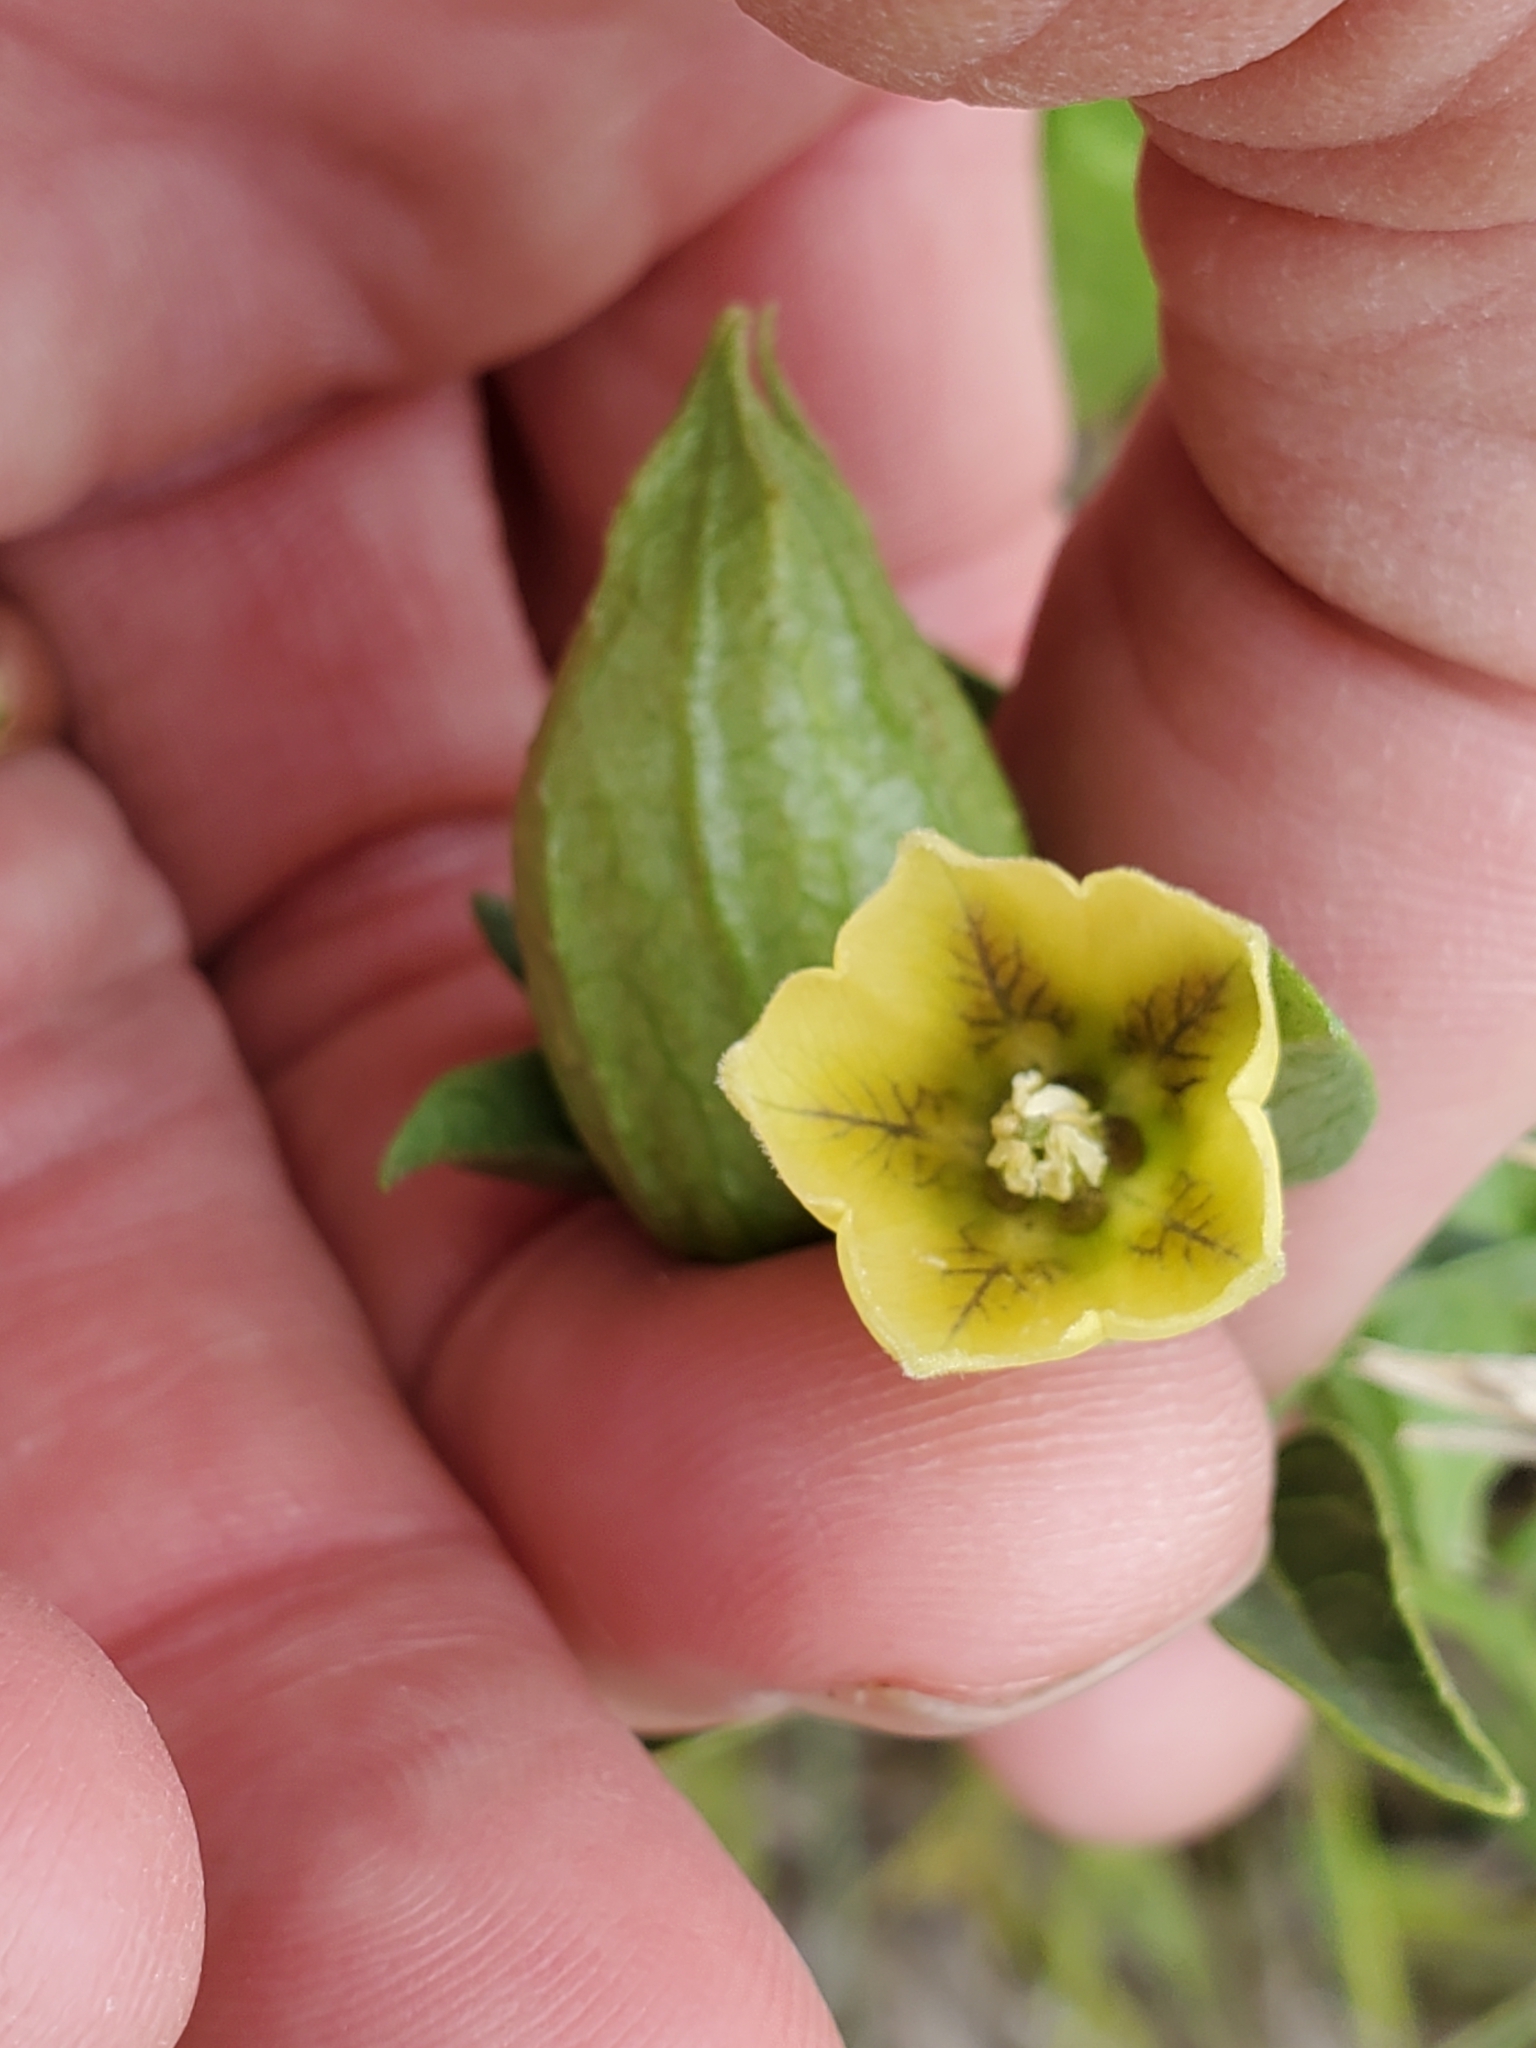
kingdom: Plantae
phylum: Tracheophyta
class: Magnoliopsida
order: Solanales
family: Solanaceae
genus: Physalis
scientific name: Physalis longifolia
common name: Common ground-cherry
